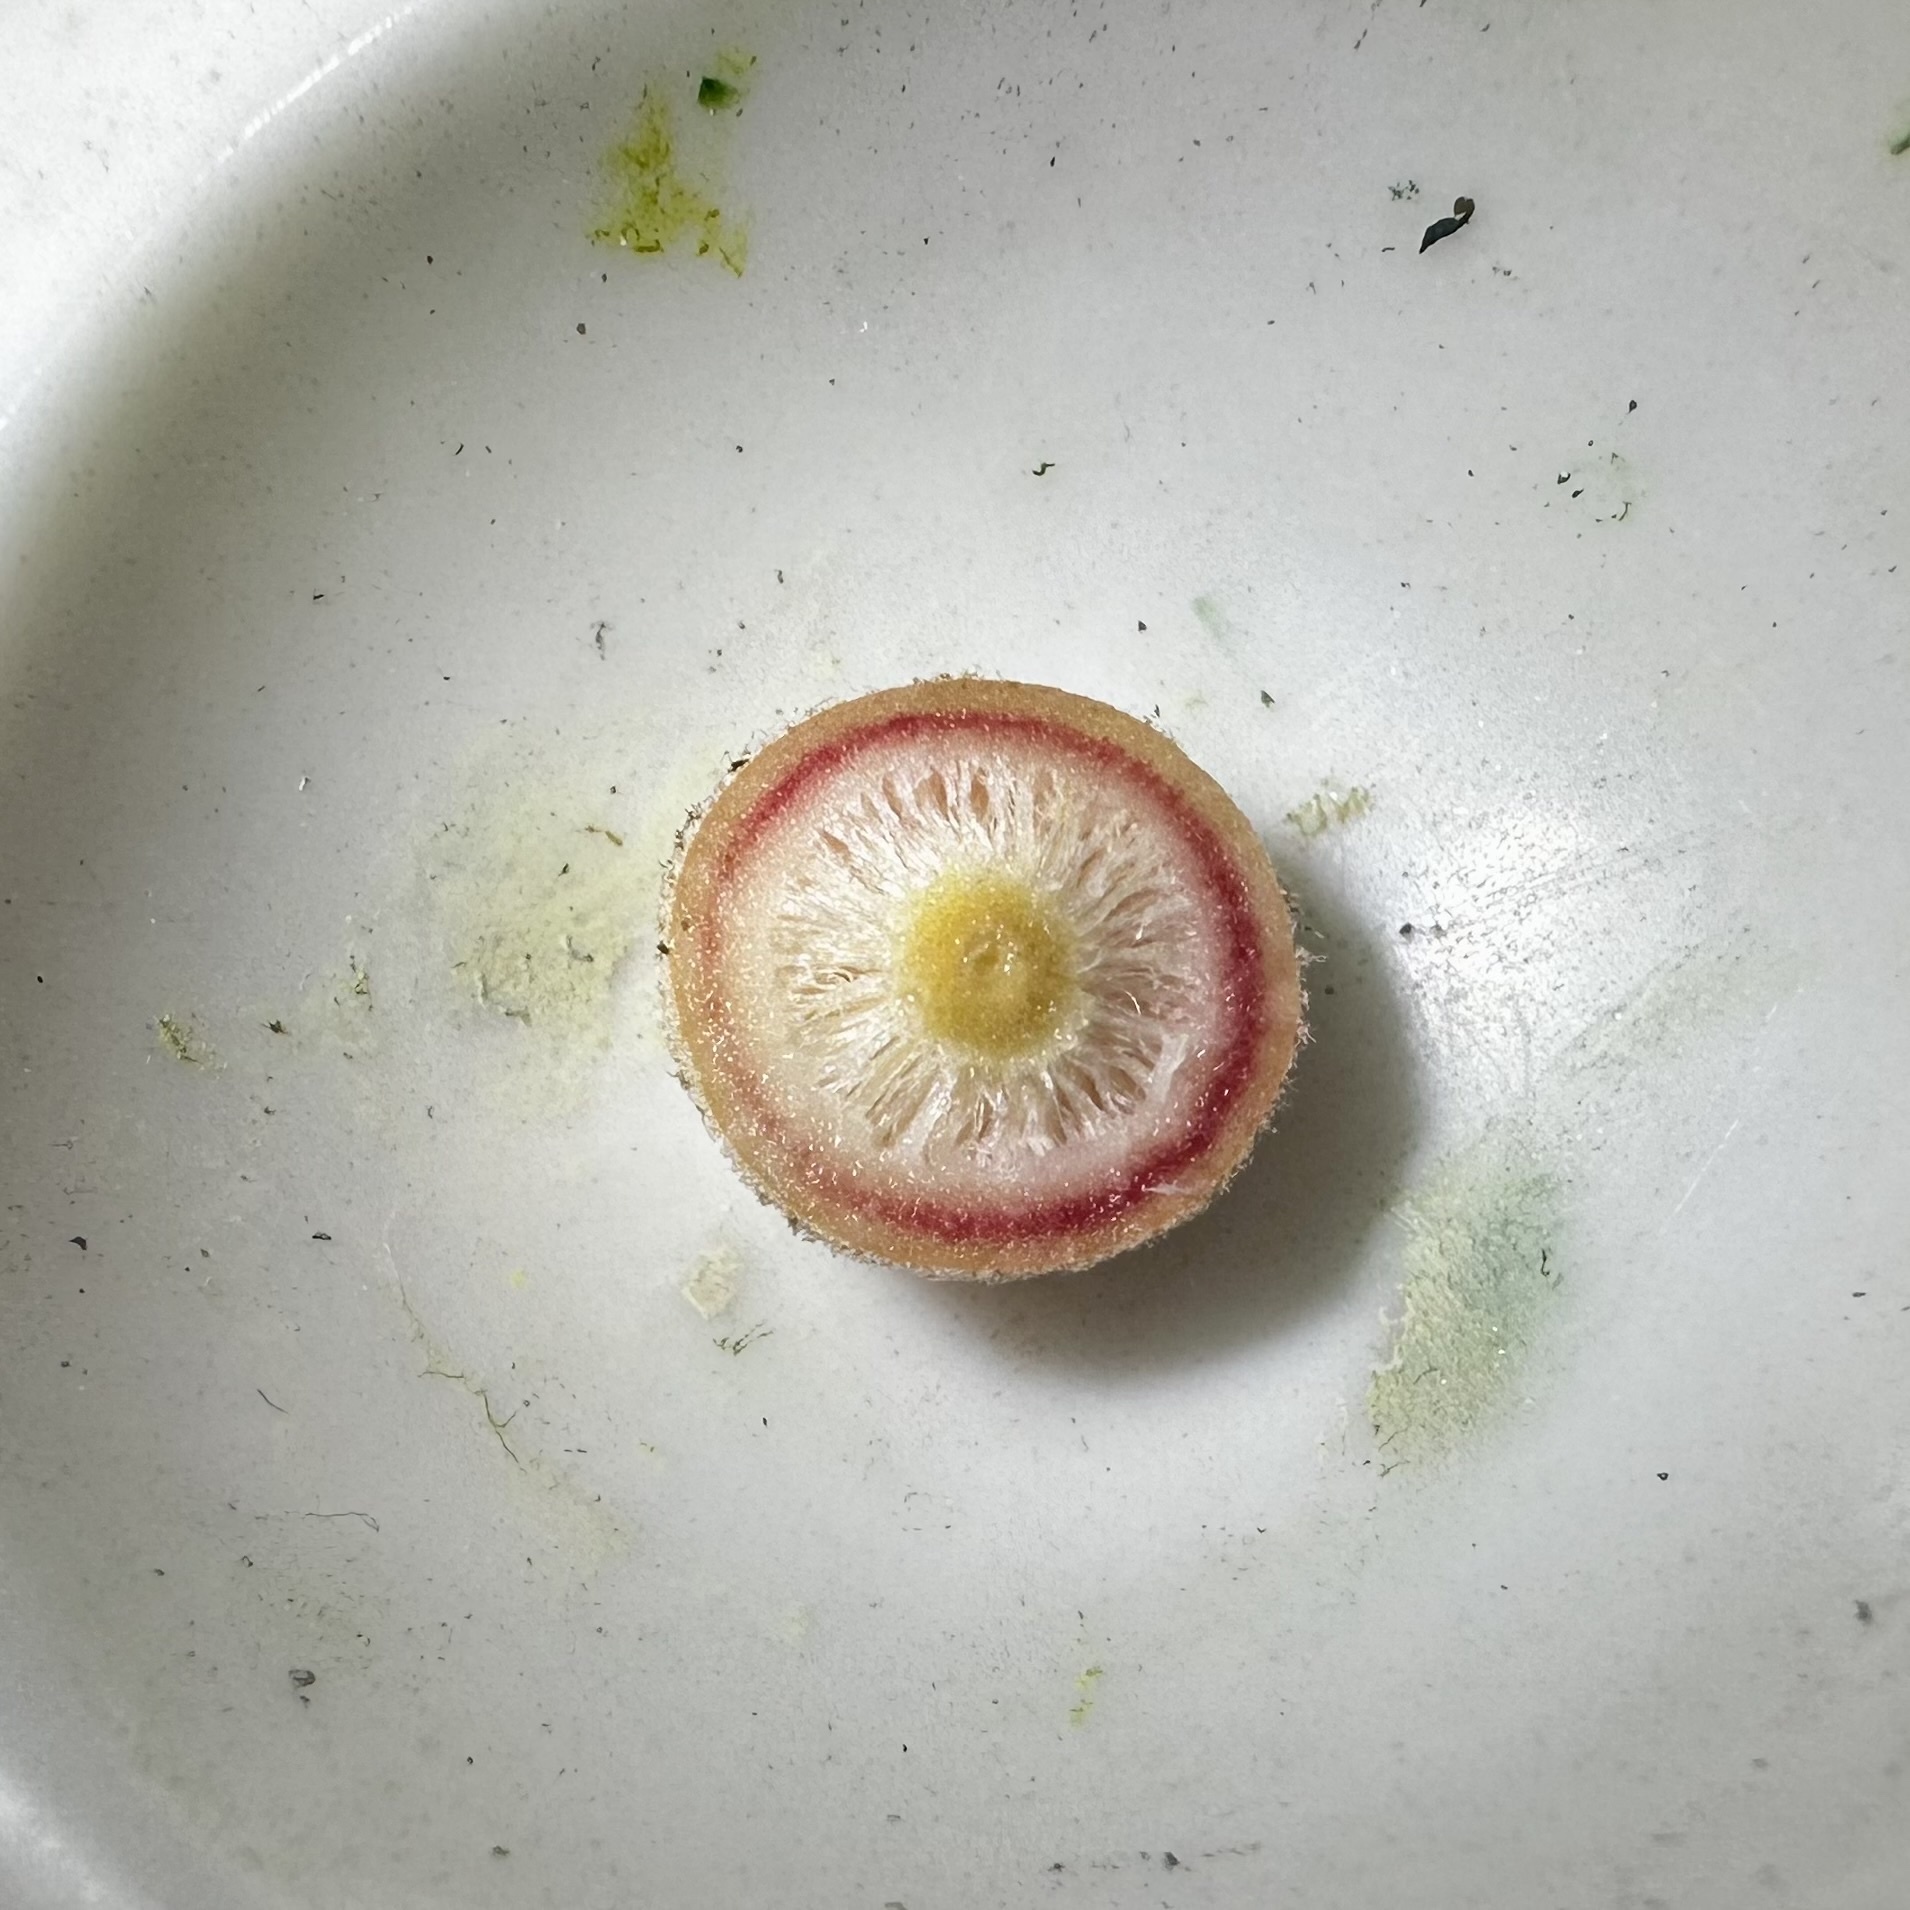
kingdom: Animalia
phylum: Arthropoda
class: Insecta
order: Hymenoptera
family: Cynipidae
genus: Philonix
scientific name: Philonix fulvicollis
